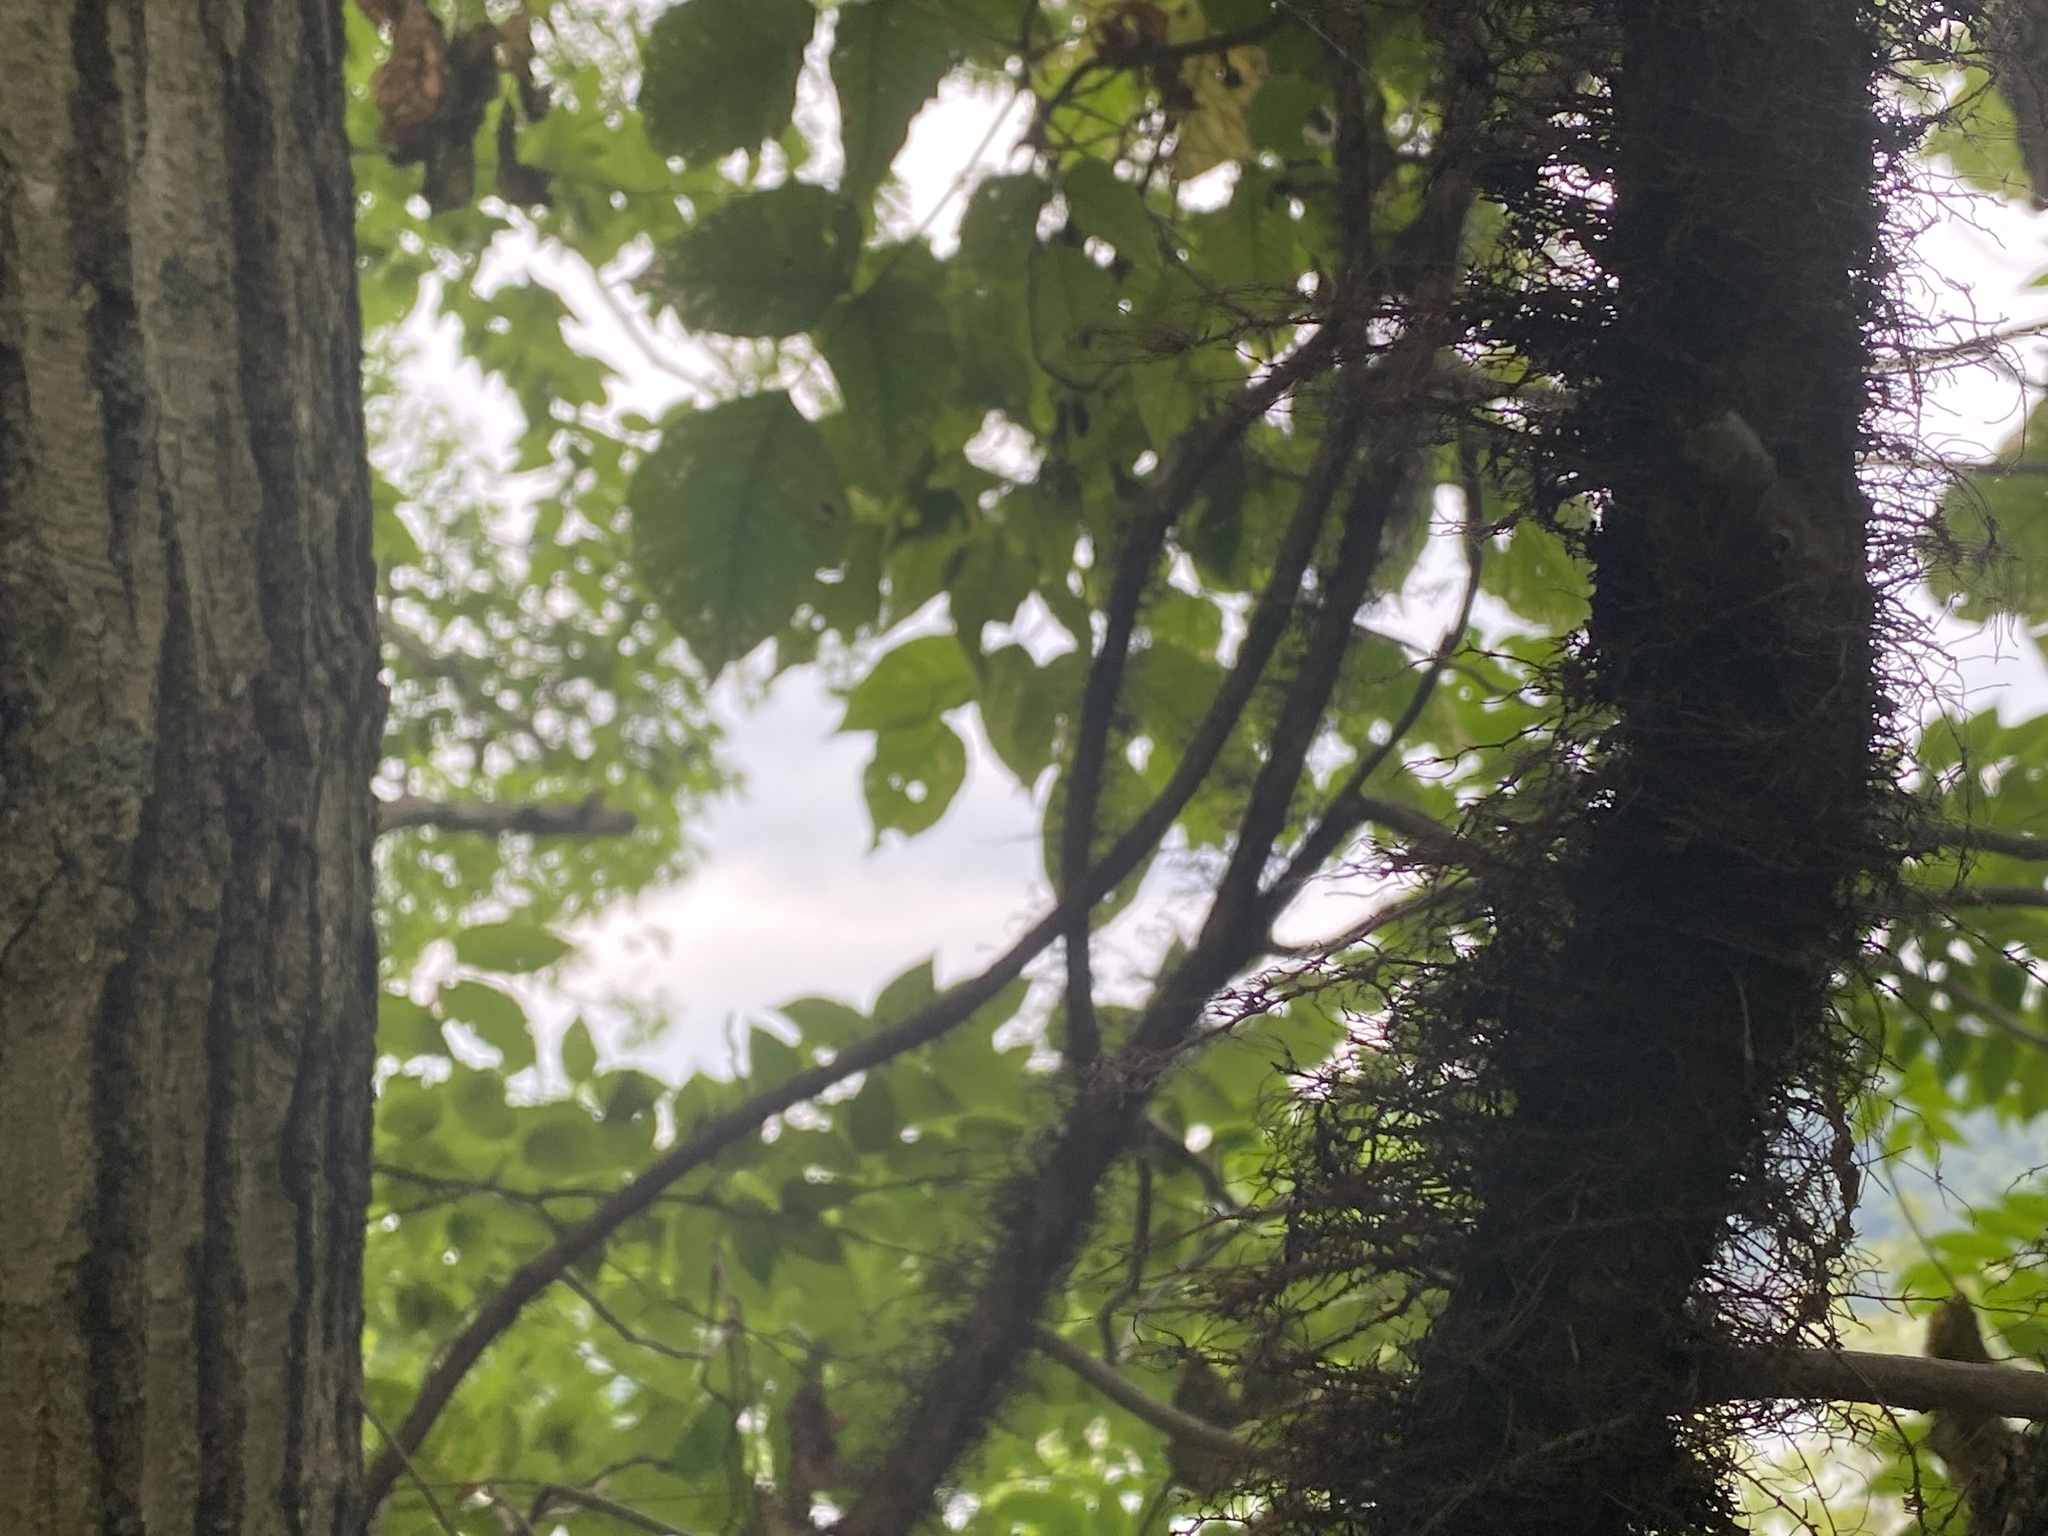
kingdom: Plantae
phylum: Tracheophyta
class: Magnoliopsida
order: Sapindales
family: Anacardiaceae
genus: Toxicodendron
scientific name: Toxicodendron radicans
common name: Poison ivy
